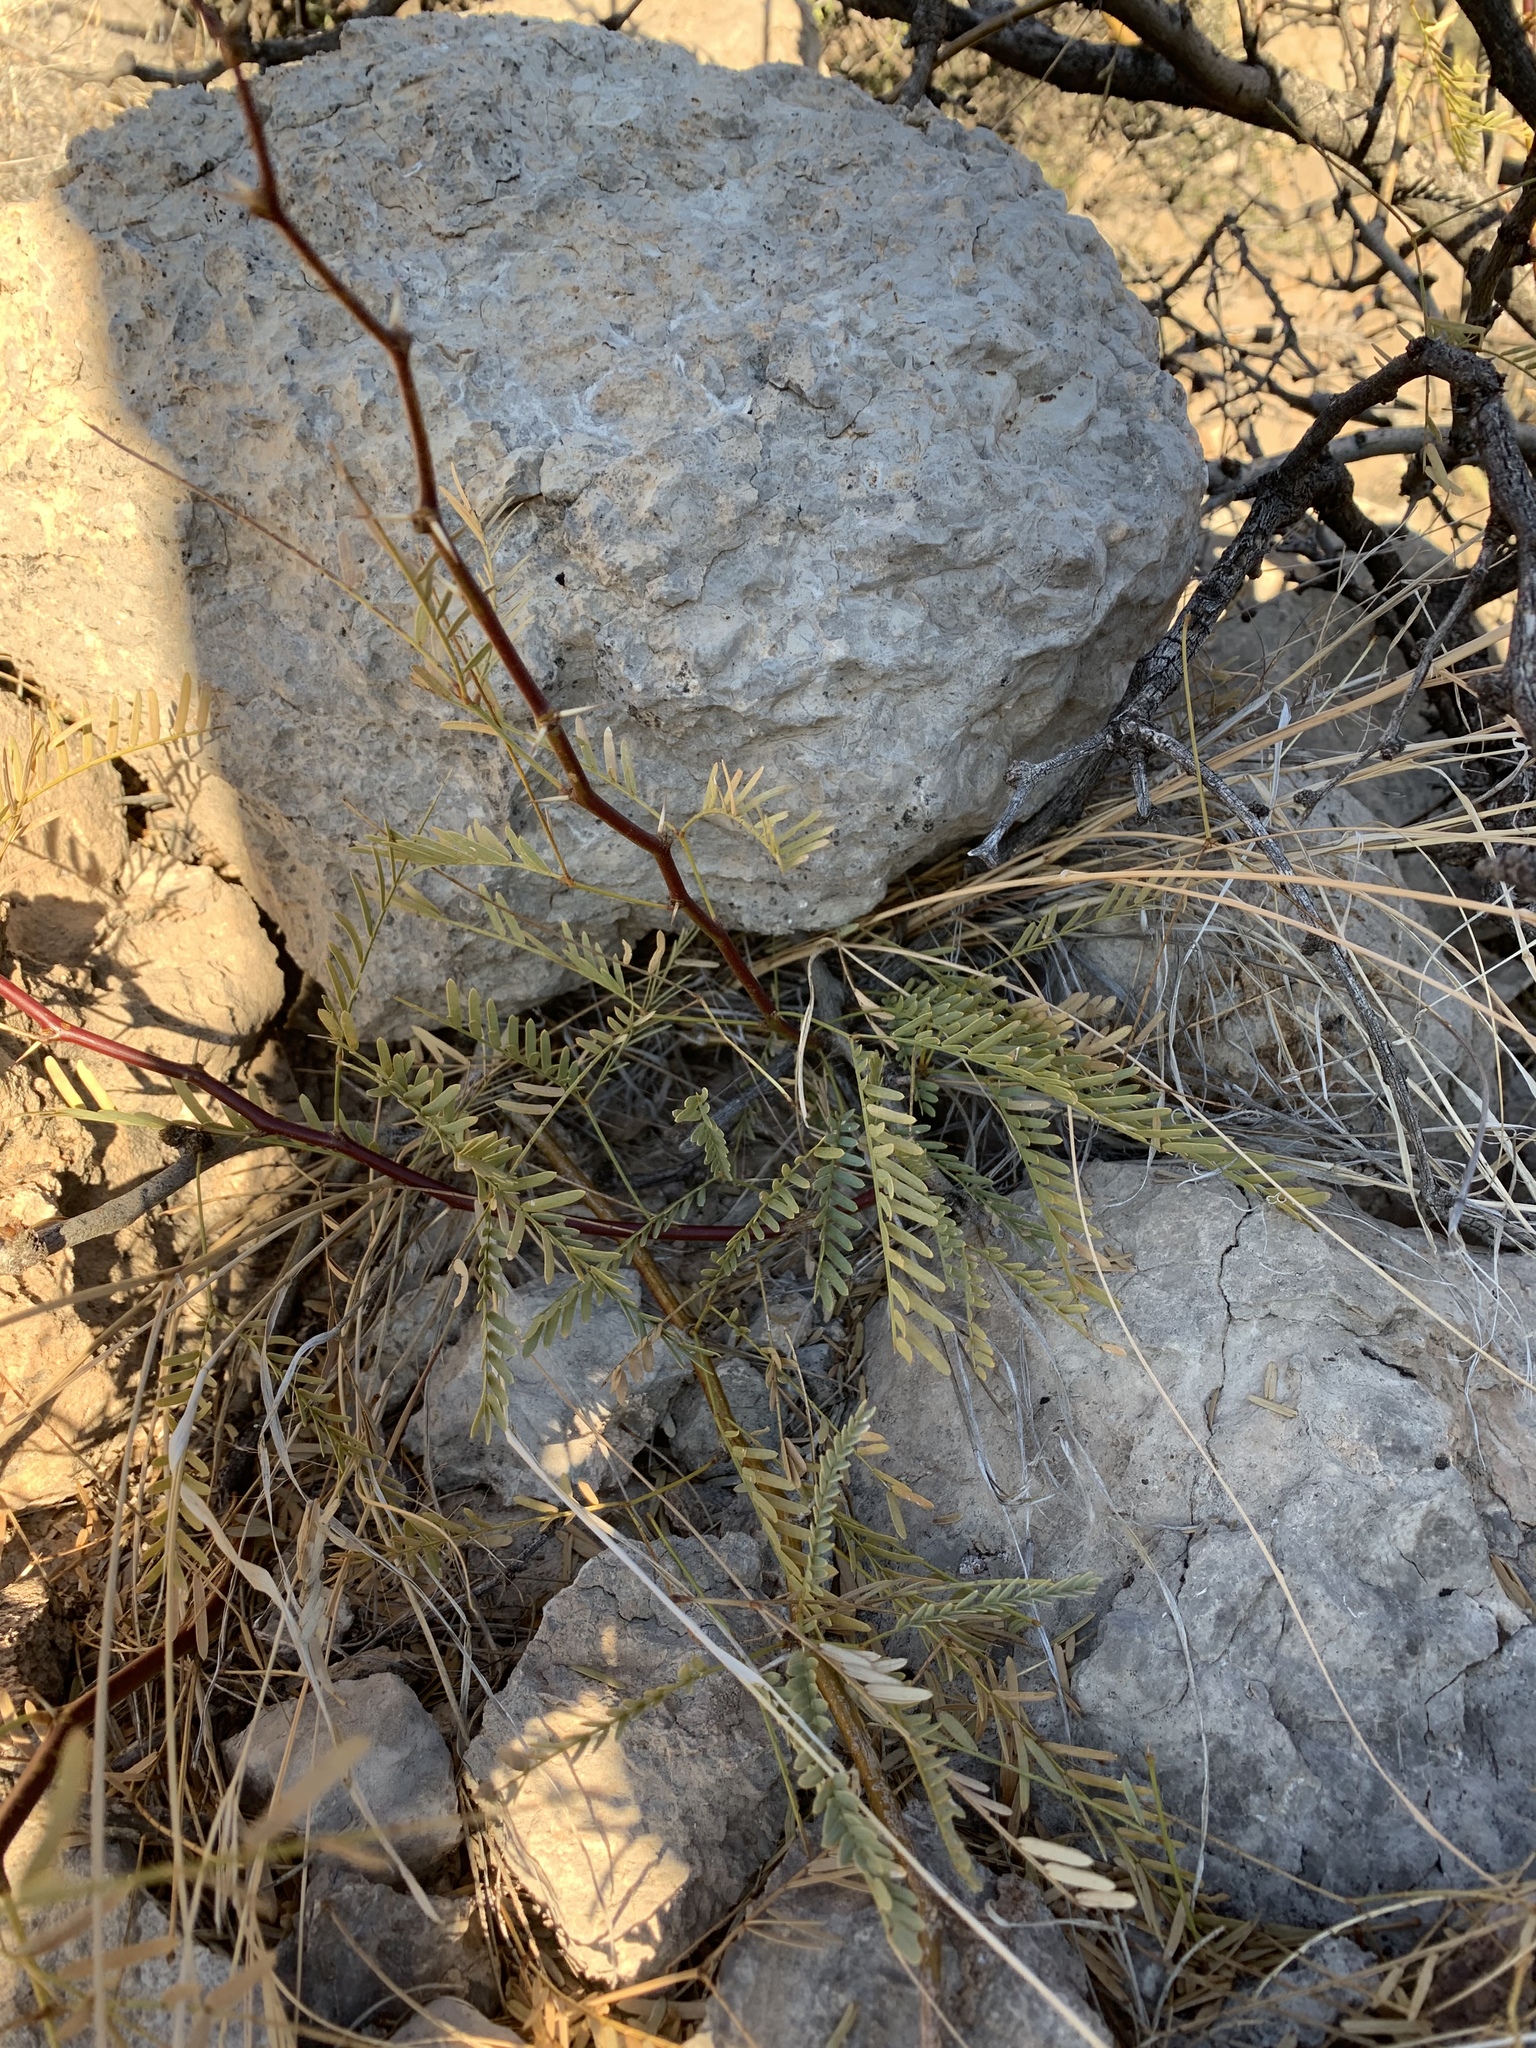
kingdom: Plantae
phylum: Tracheophyta
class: Magnoliopsida
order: Fabales
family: Fabaceae
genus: Prosopis
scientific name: Prosopis glandulosa
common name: Honey mesquite
